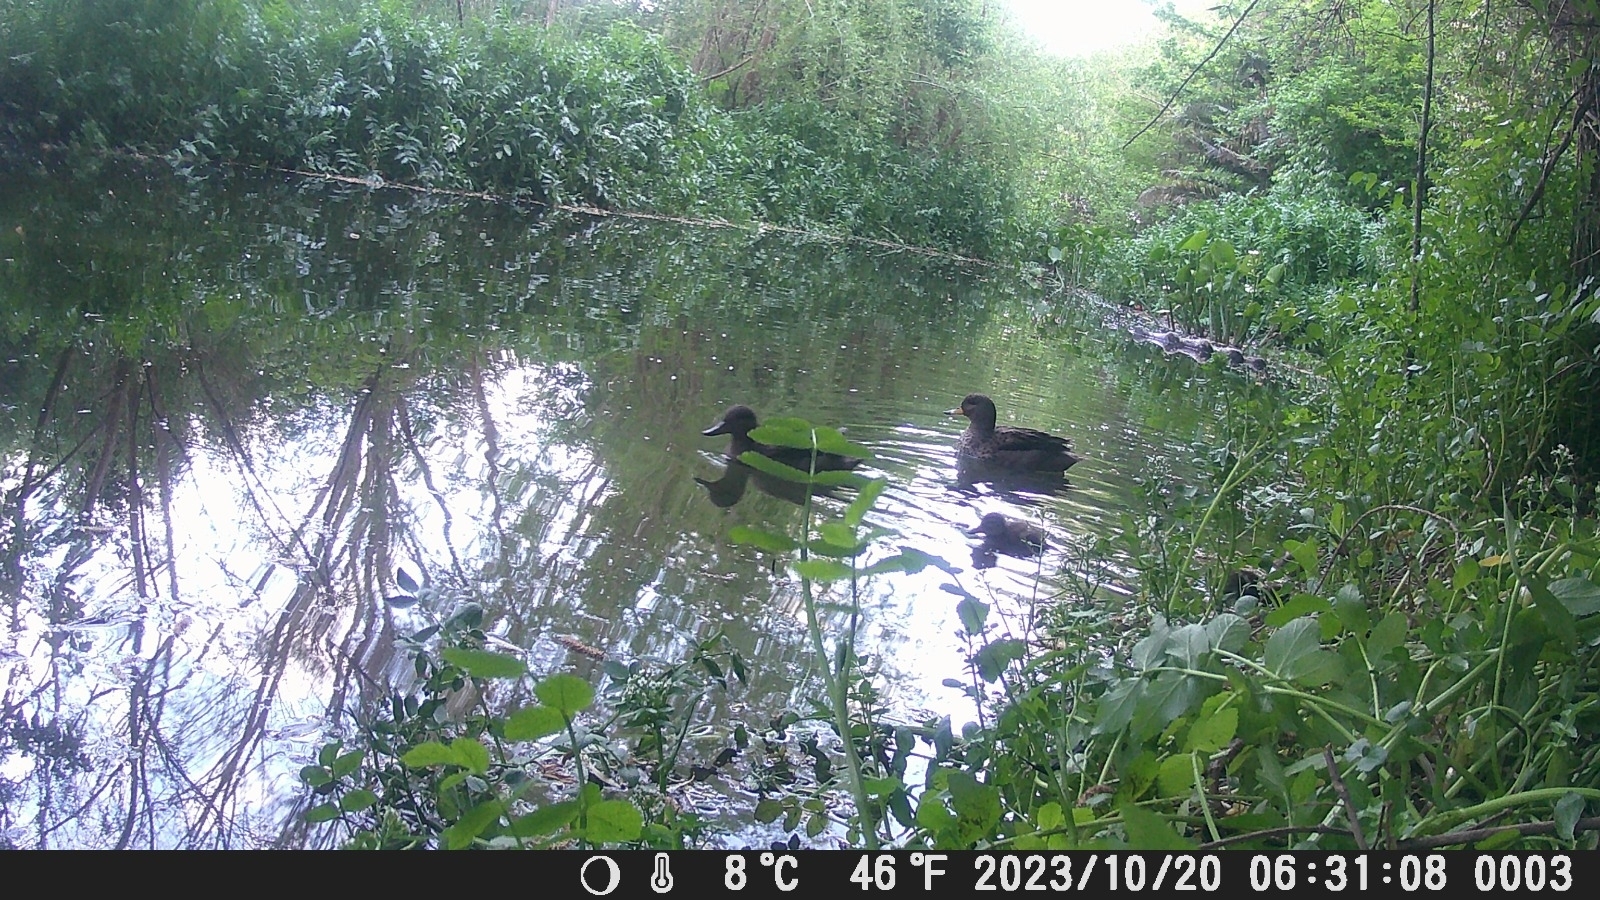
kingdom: Animalia
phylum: Chordata
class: Aves
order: Anseriformes
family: Anatidae
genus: Anas
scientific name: Anas flavirostris
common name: Yellow-billed teal
